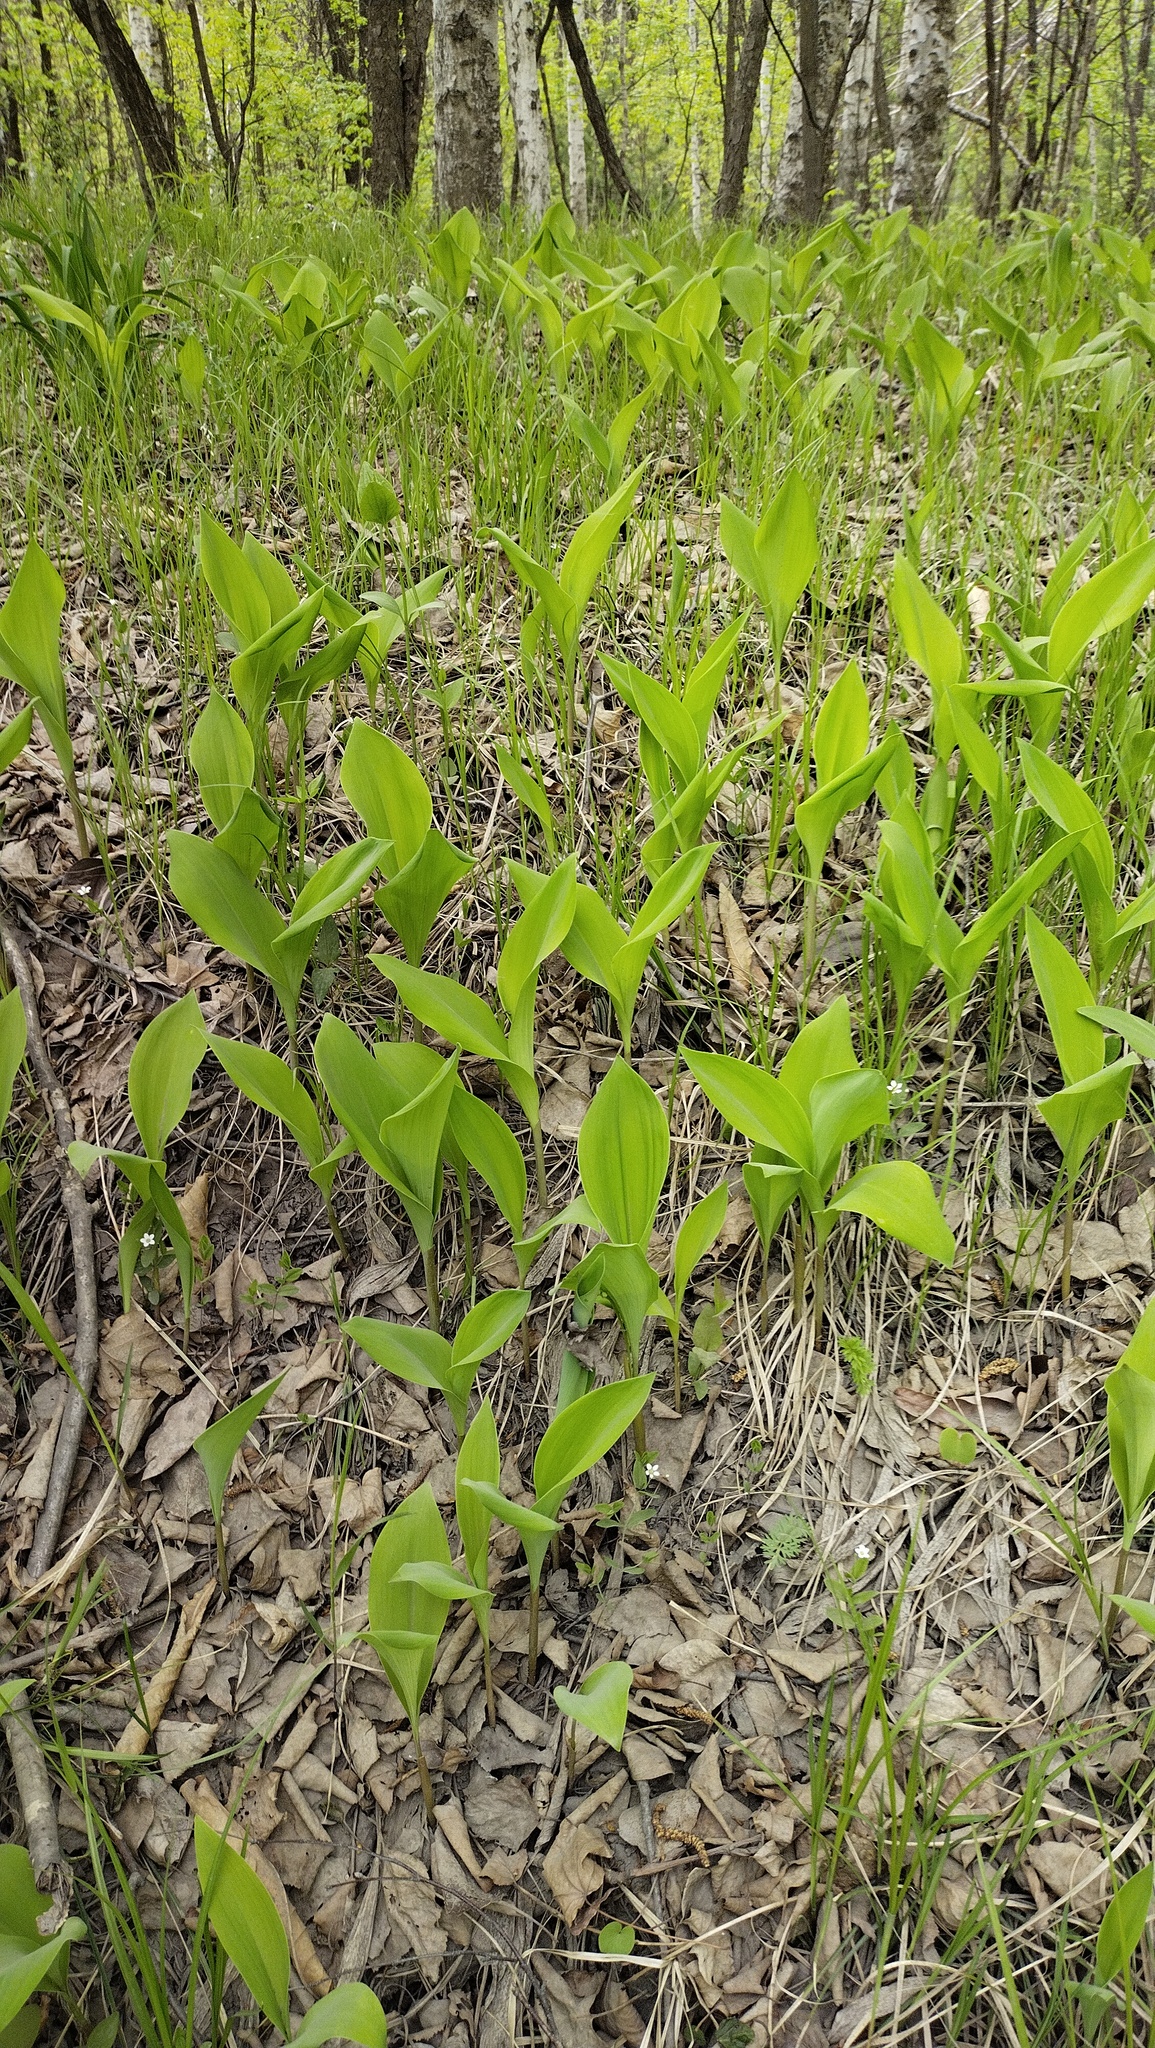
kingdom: Plantae
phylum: Tracheophyta
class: Liliopsida
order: Asparagales
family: Asparagaceae
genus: Convallaria
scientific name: Convallaria keiskei
